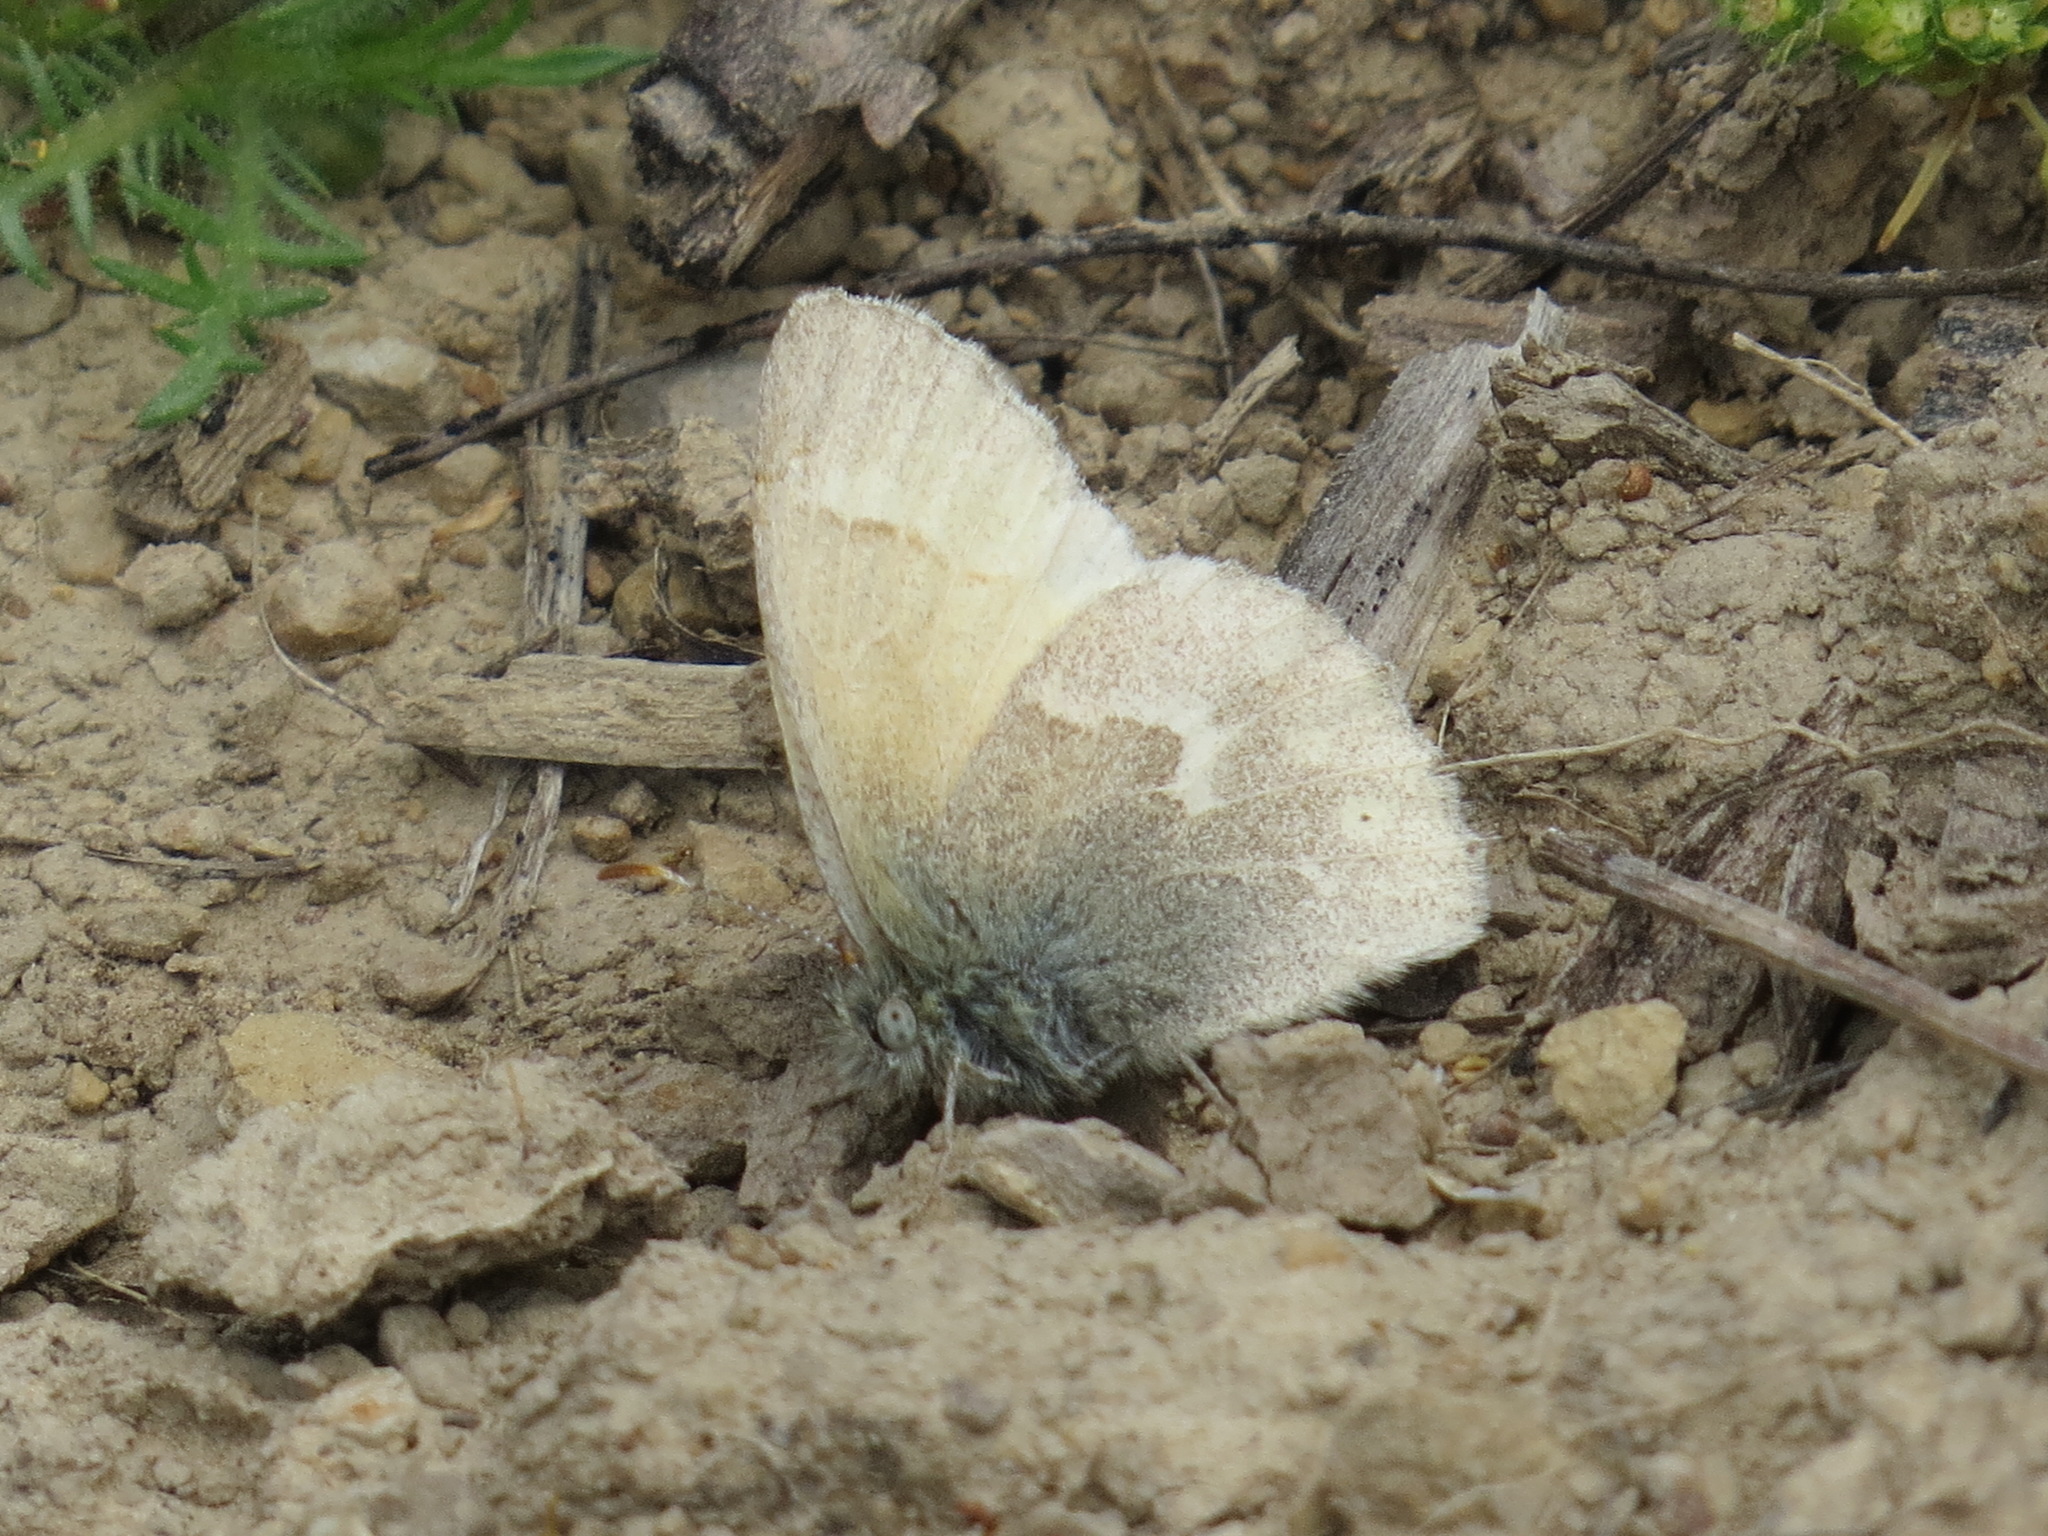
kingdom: Animalia
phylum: Arthropoda
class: Insecta
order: Lepidoptera
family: Nymphalidae
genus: Coenonympha
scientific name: Coenonympha california
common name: Common ringlet
